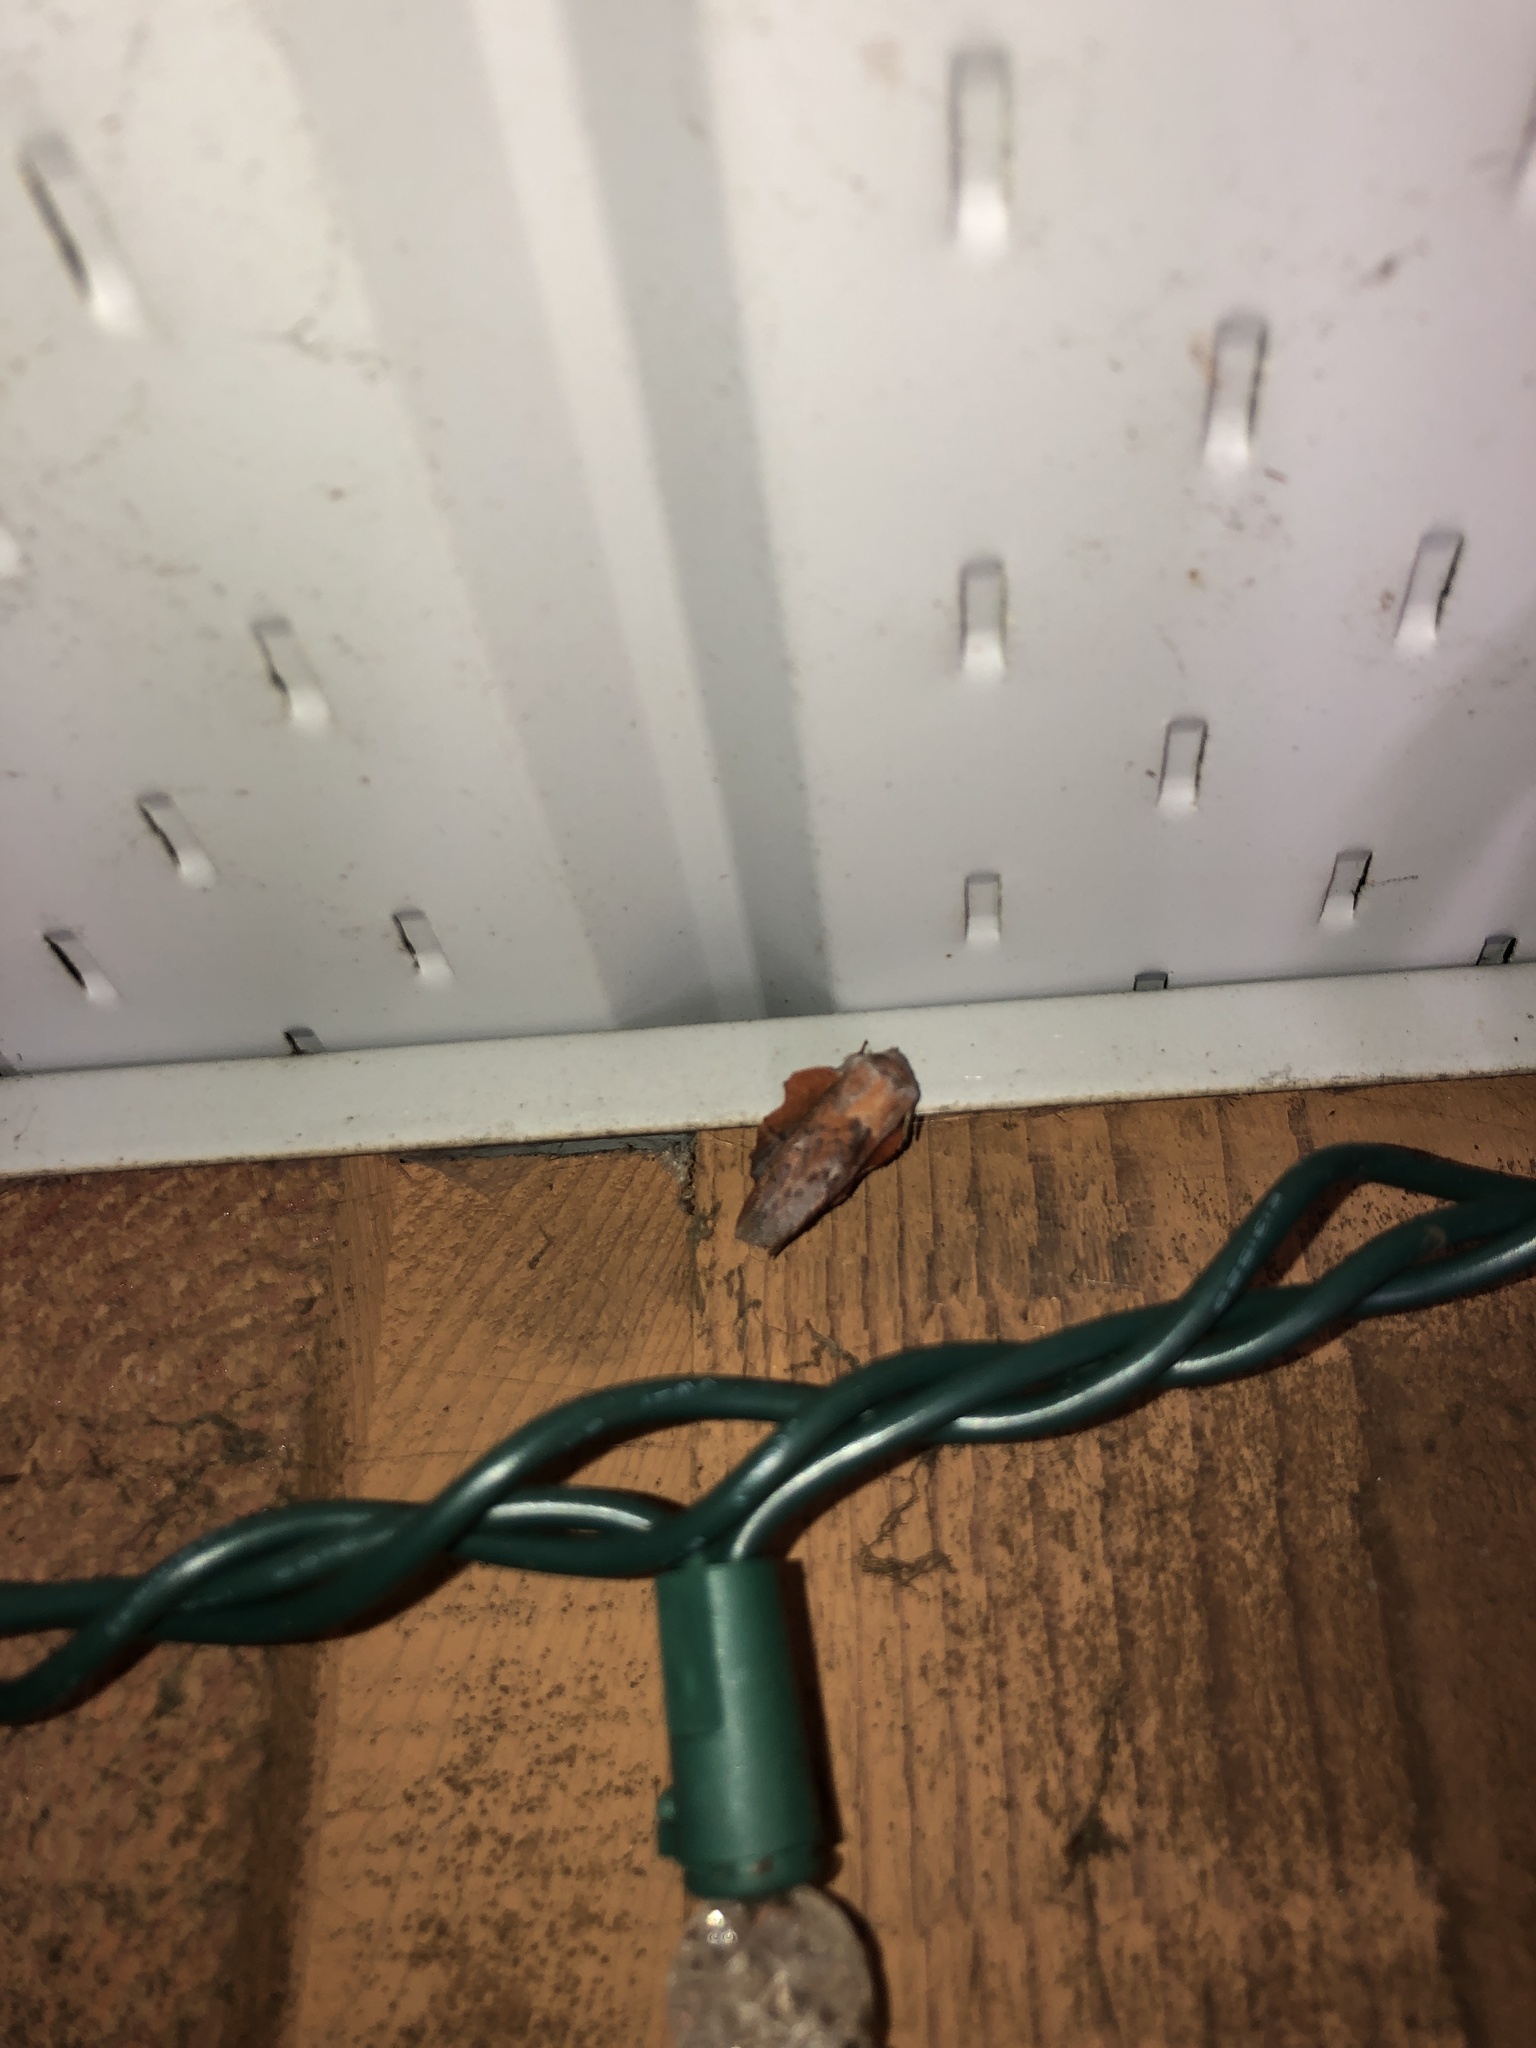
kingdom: Animalia
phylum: Arthropoda
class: Insecta
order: Lepidoptera
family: Lasiocampidae
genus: Phyllodesma
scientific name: Phyllodesma americana
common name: American lappet moth
